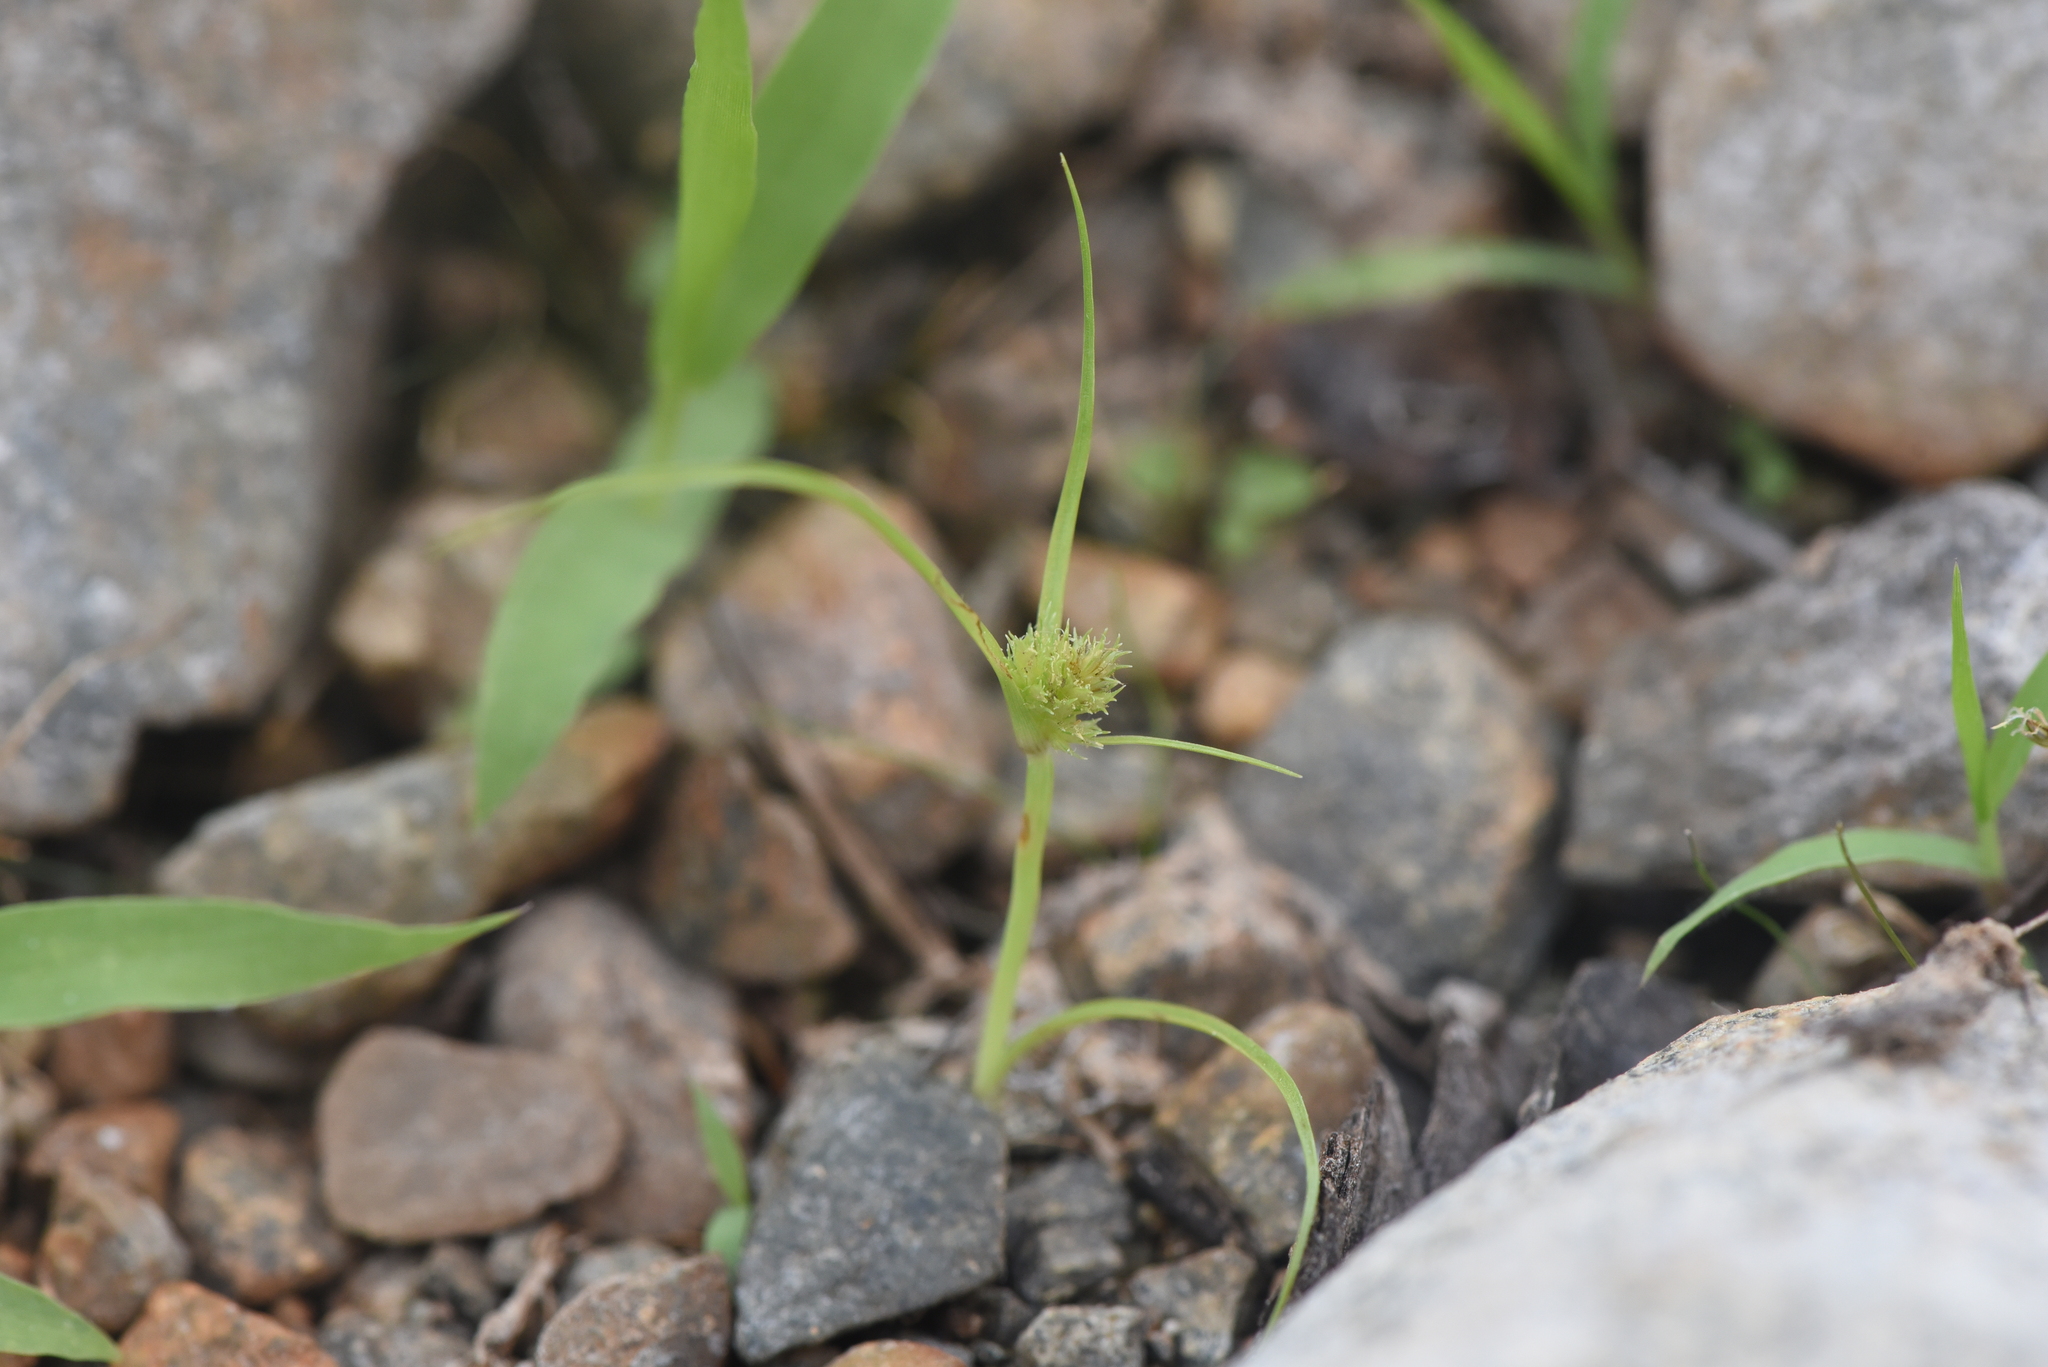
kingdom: Plantae
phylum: Tracheophyta
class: Liliopsida
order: Poales
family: Cyperaceae
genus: Cyperus
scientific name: Cyperus squarrosus
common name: Awned cyperus
